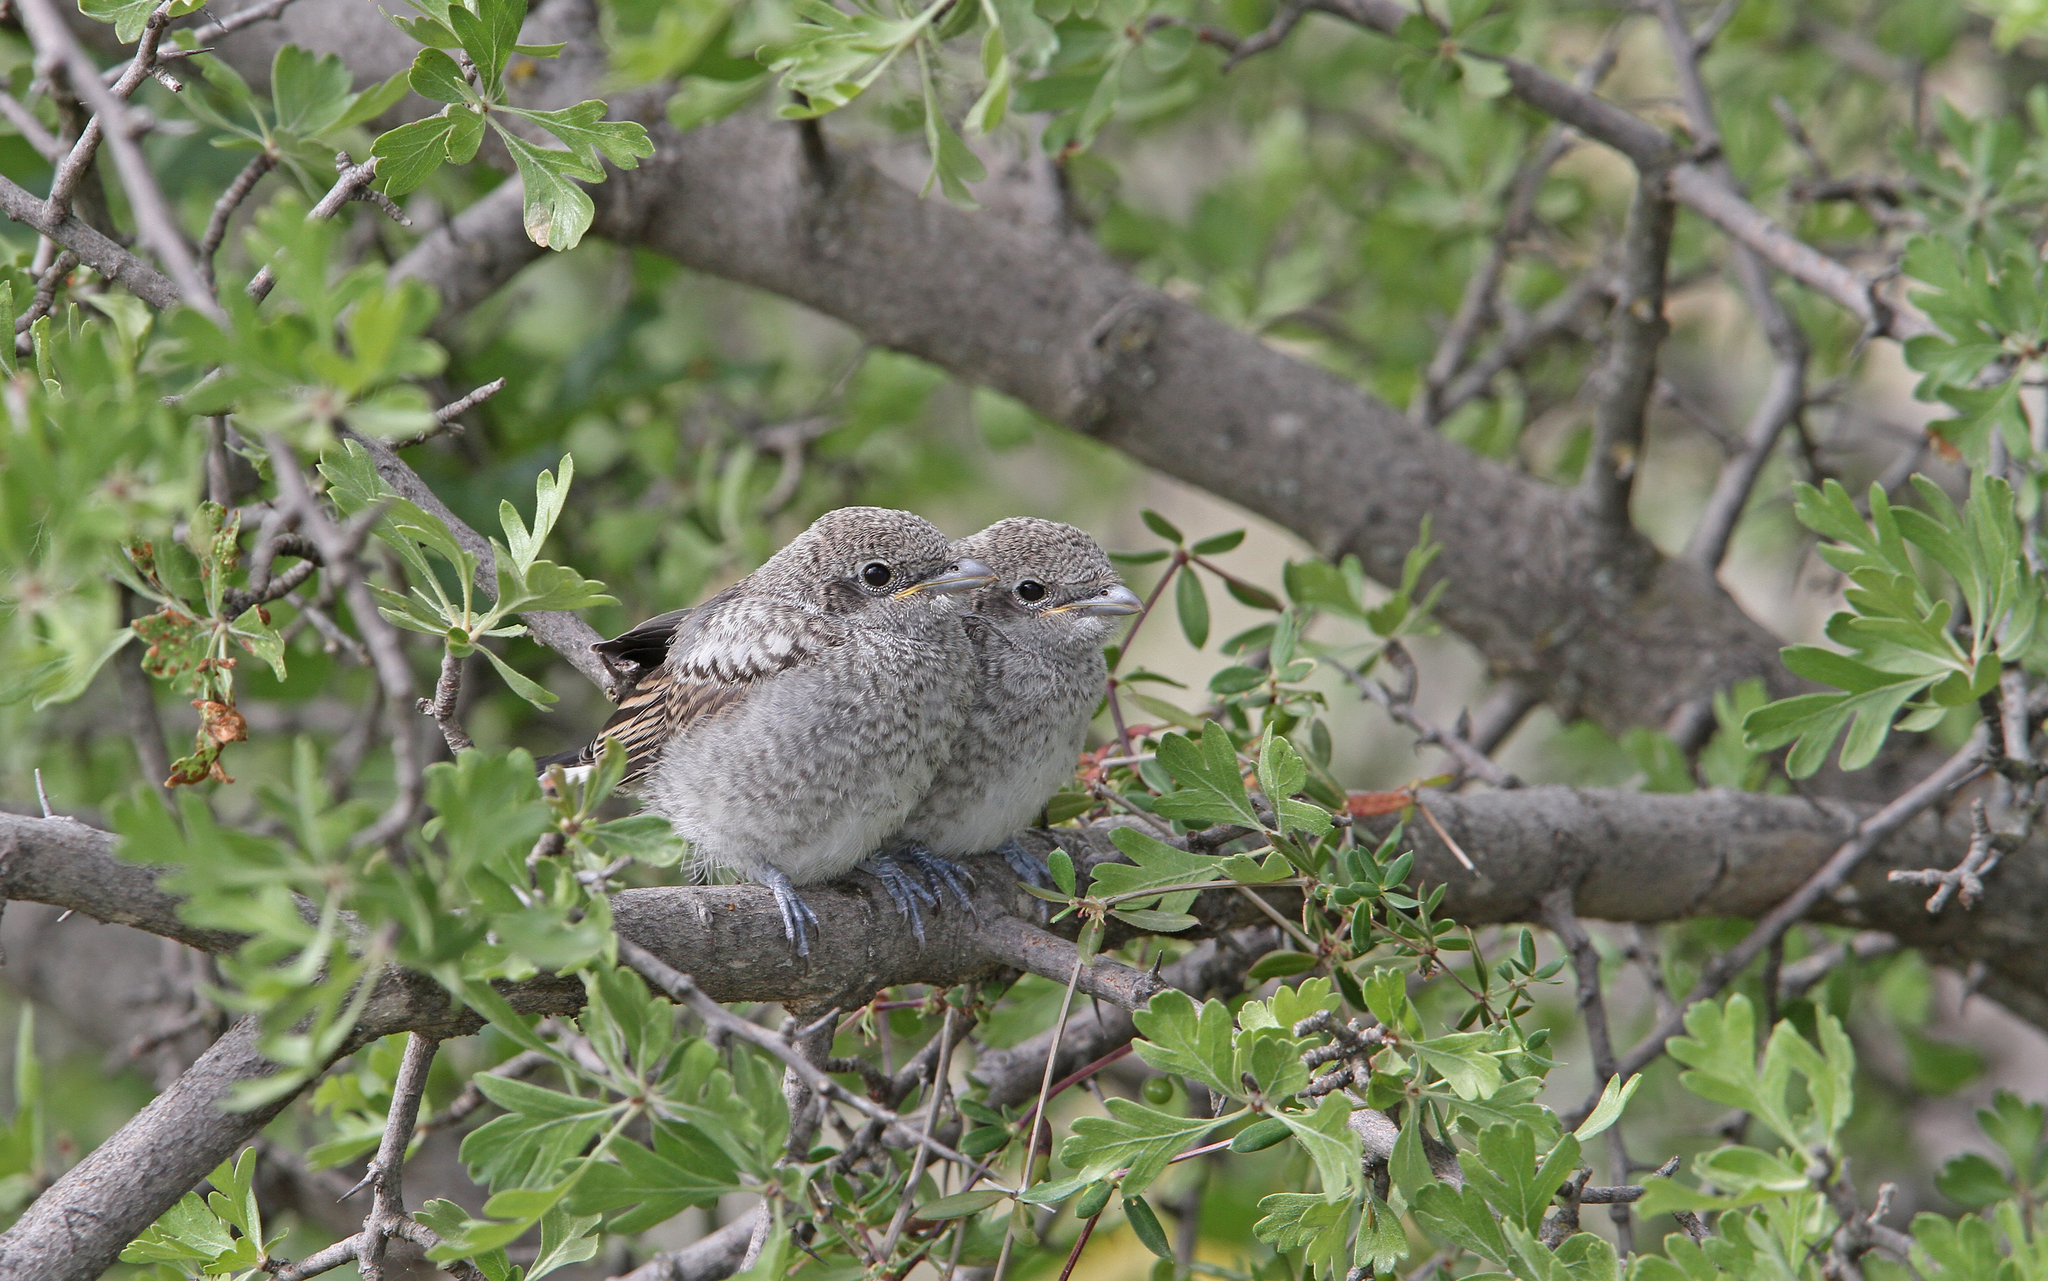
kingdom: Animalia
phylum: Chordata
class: Aves
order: Passeriformes
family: Laniidae
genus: Lanius
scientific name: Lanius nubicus
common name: Masked shrike
